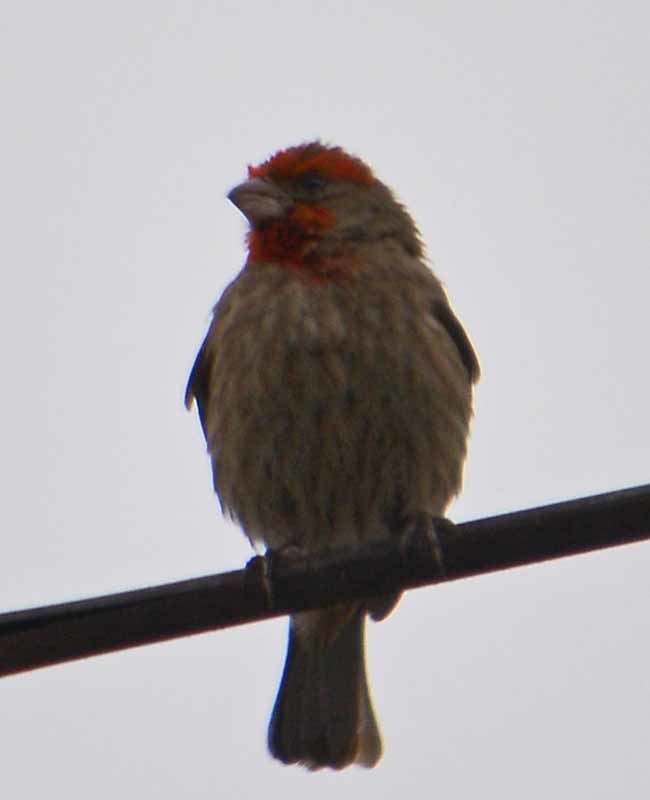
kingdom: Animalia
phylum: Chordata
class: Aves
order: Passeriformes
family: Fringillidae
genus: Haemorhous
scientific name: Haemorhous mexicanus
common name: House finch
